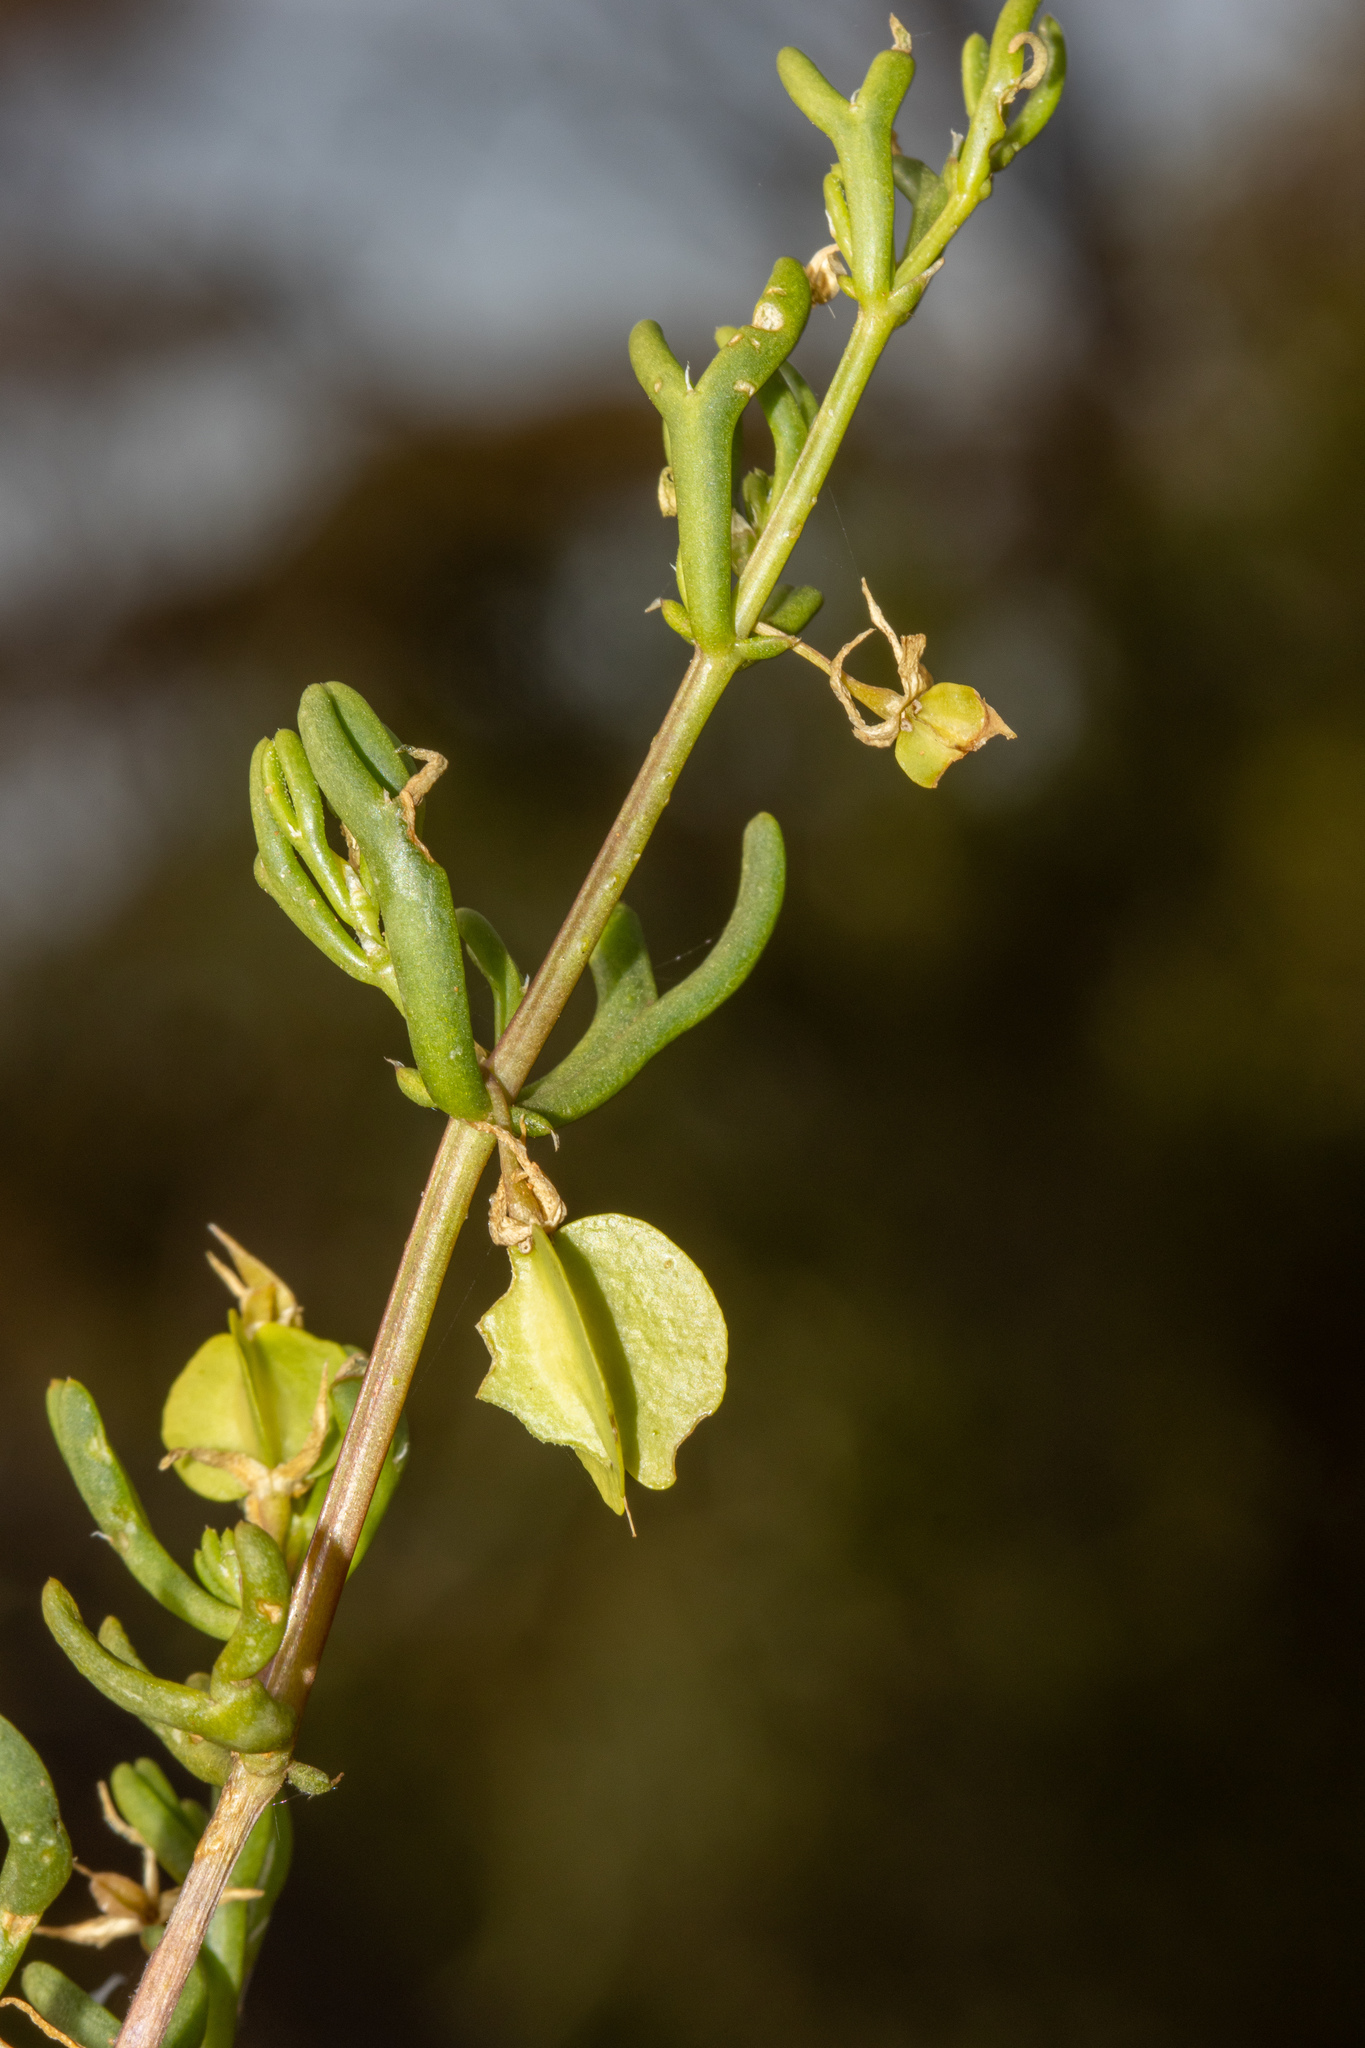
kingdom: Plantae
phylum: Tracheophyta
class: Magnoliopsida
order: Zygophyllales
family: Zygophyllaceae
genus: Roepera
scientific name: Roepera aurantiaca
